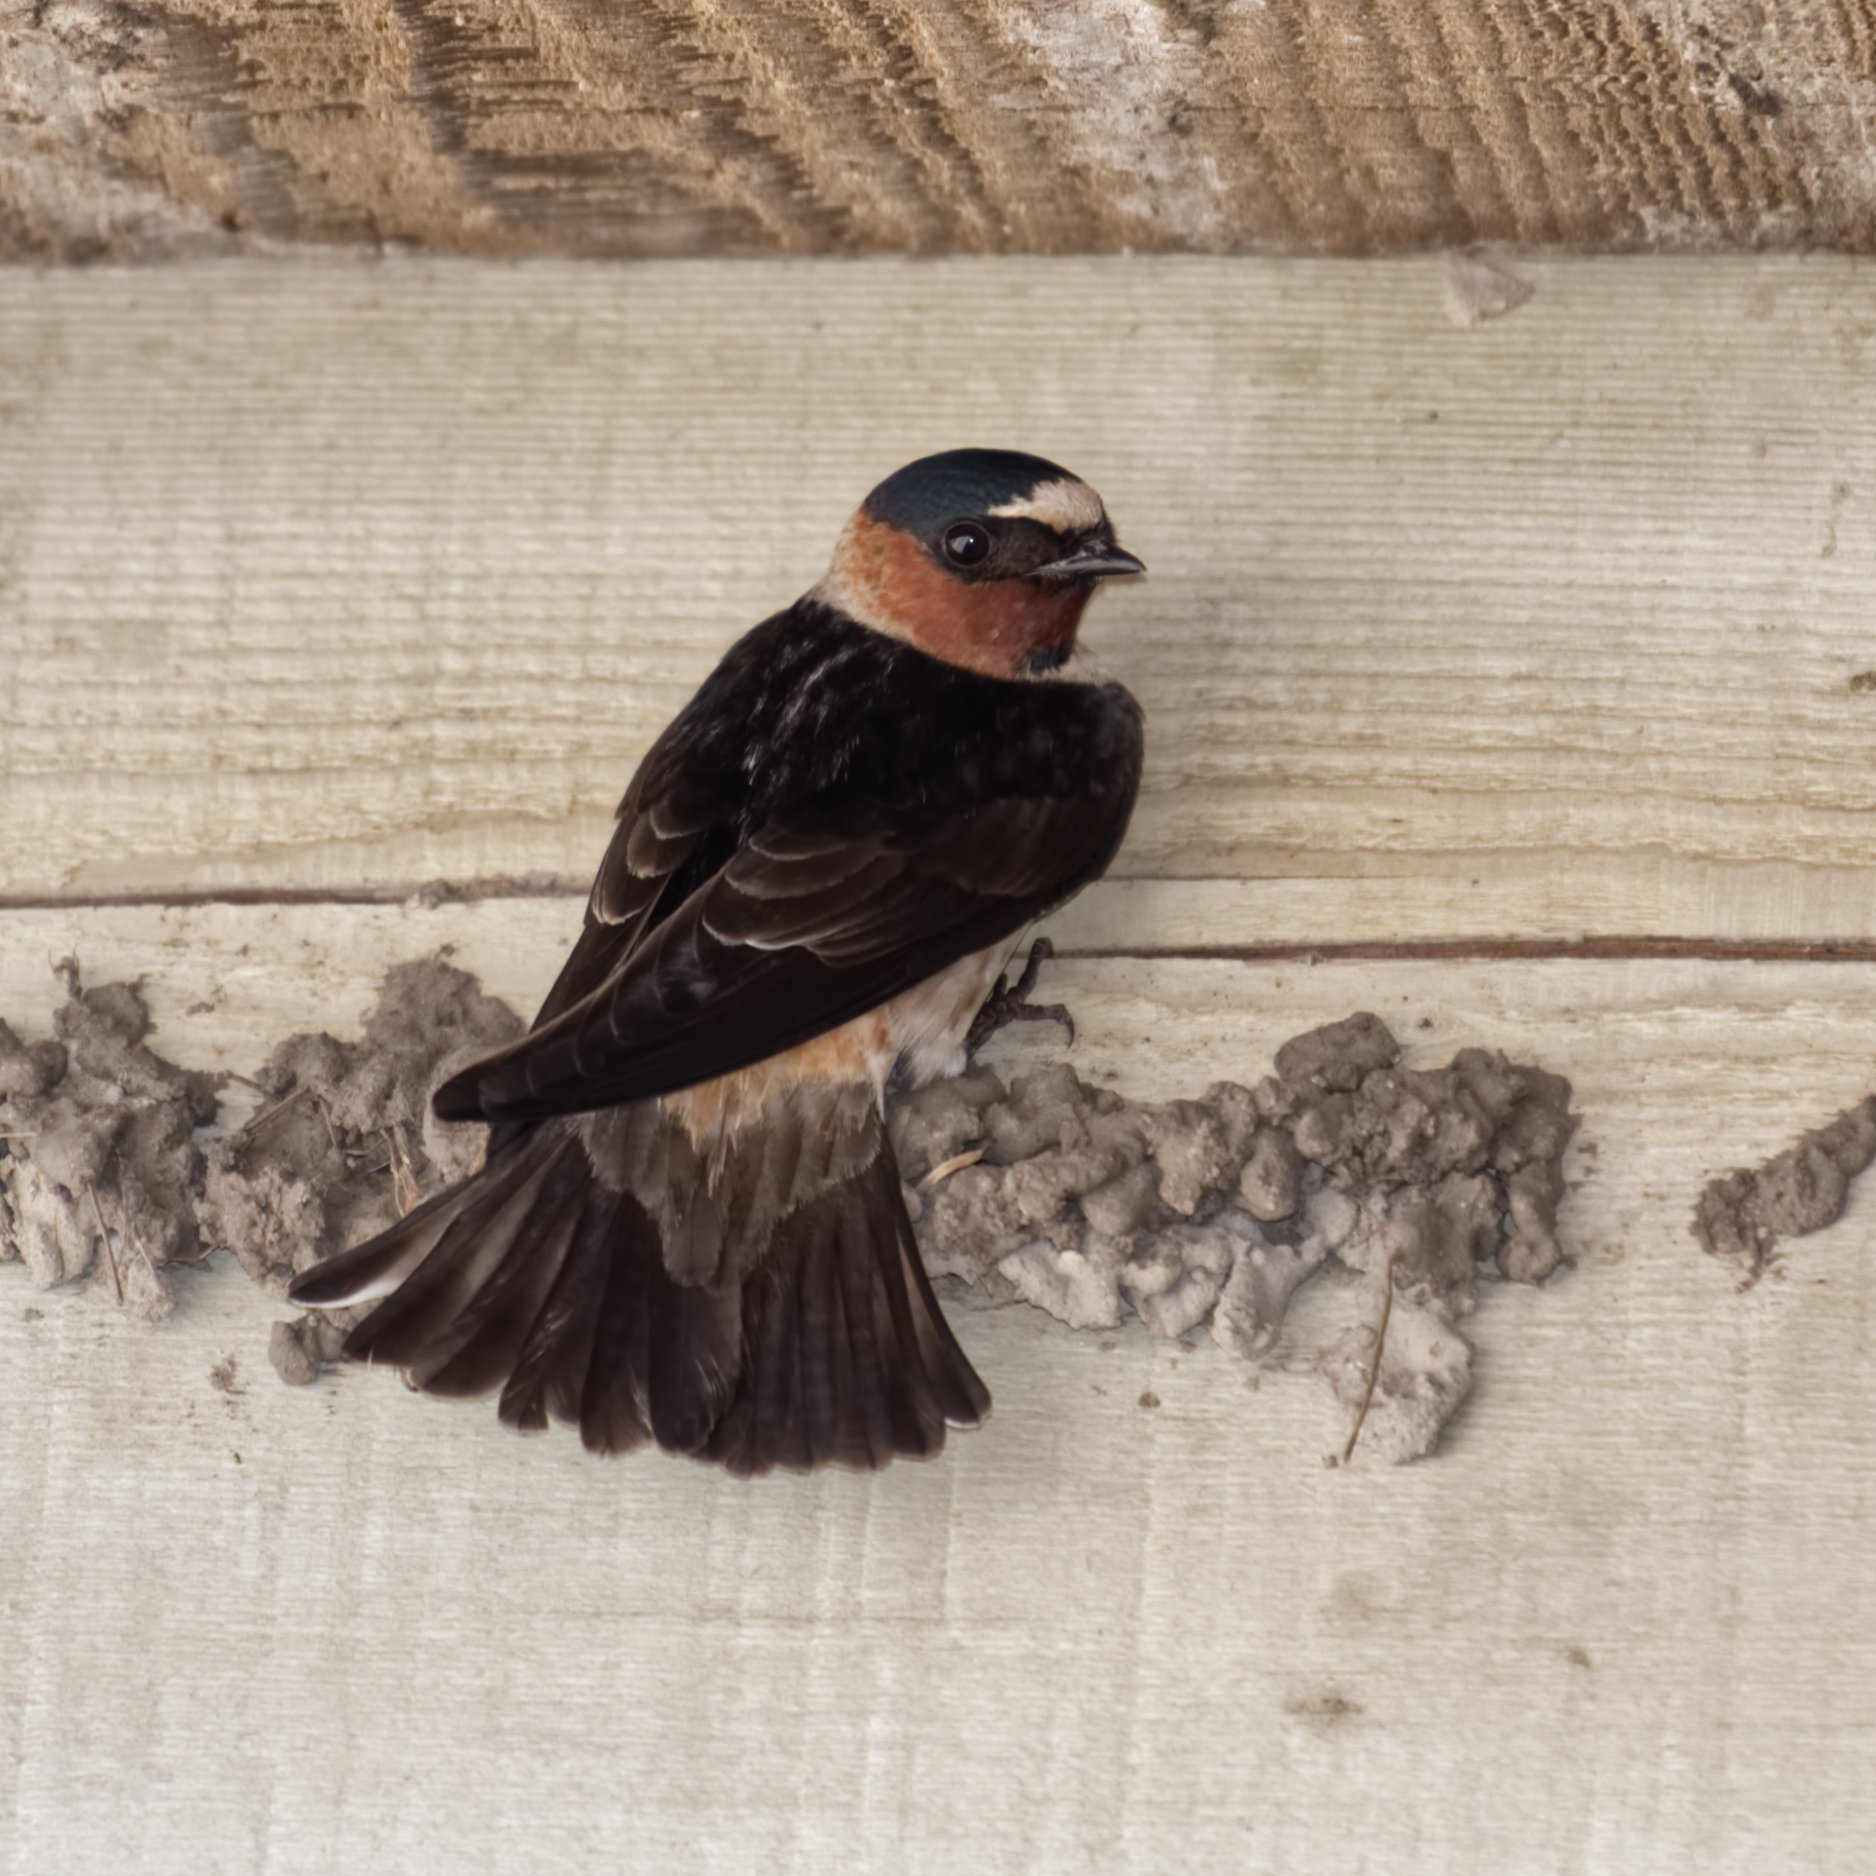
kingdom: Animalia
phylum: Chordata
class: Aves
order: Passeriformes
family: Hirundinidae
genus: Petrochelidon
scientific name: Petrochelidon pyrrhonota
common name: American cliff swallow
